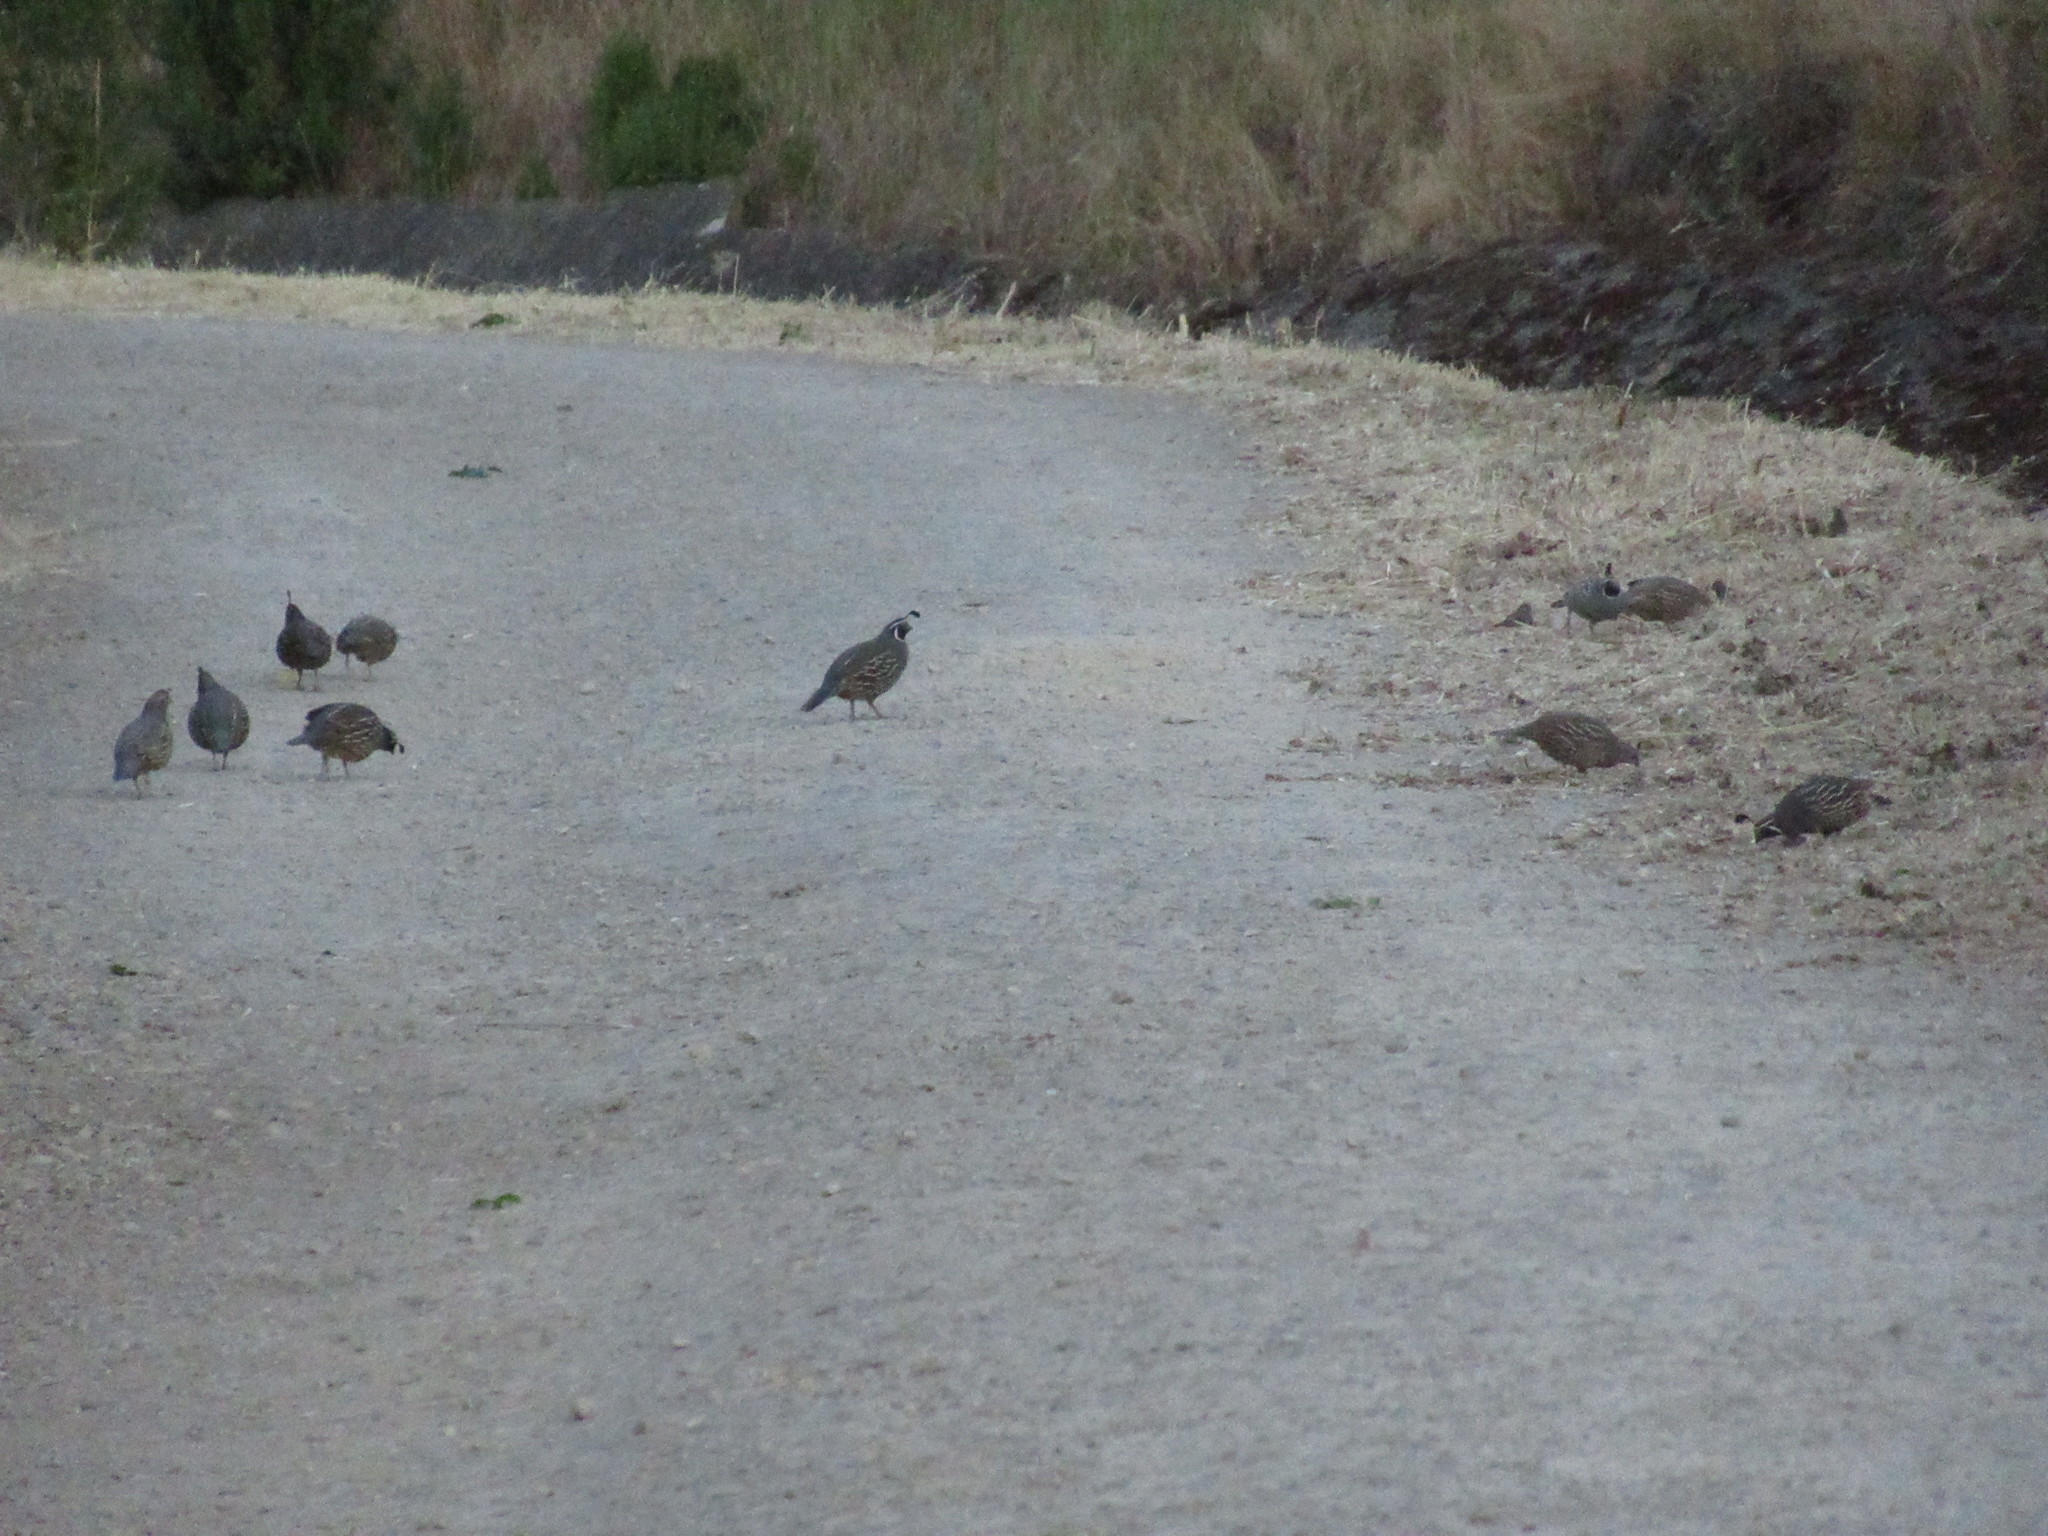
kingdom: Animalia
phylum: Chordata
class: Aves
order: Galliformes
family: Odontophoridae
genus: Callipepla
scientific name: Callipepla californica
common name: California quail
